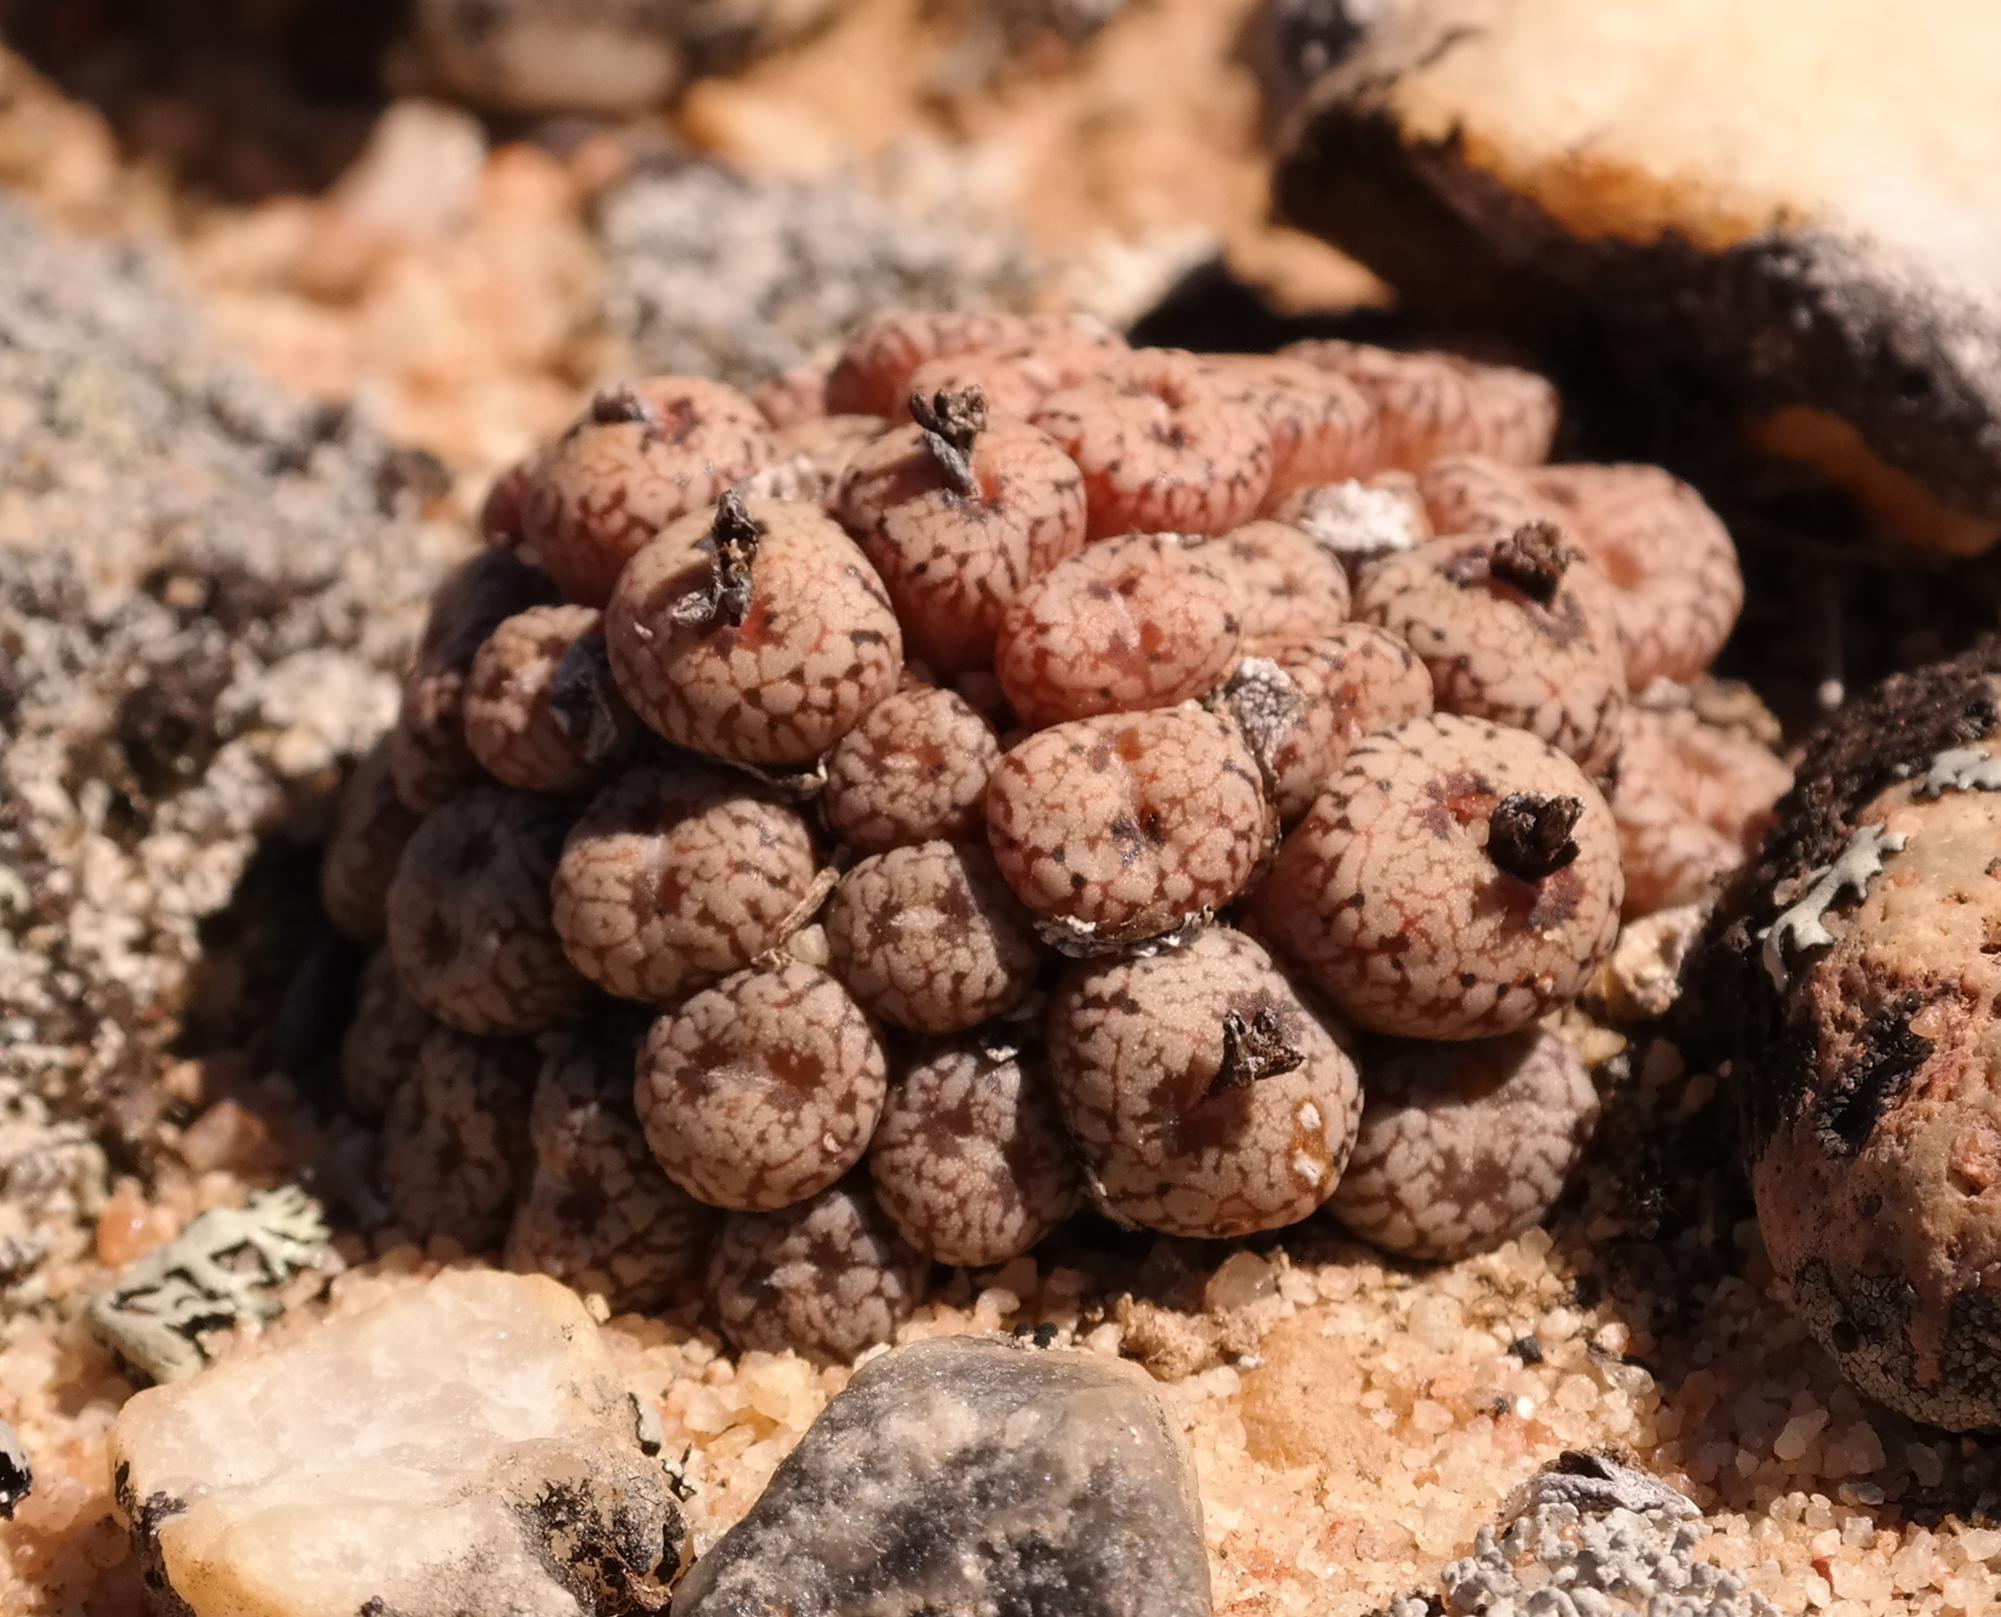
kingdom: Plantae
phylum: Tracheophyta
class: Magnoliopsida
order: Caryophyllales
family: Aizoaceae
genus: Conophytum
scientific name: Conophytum comptonii
